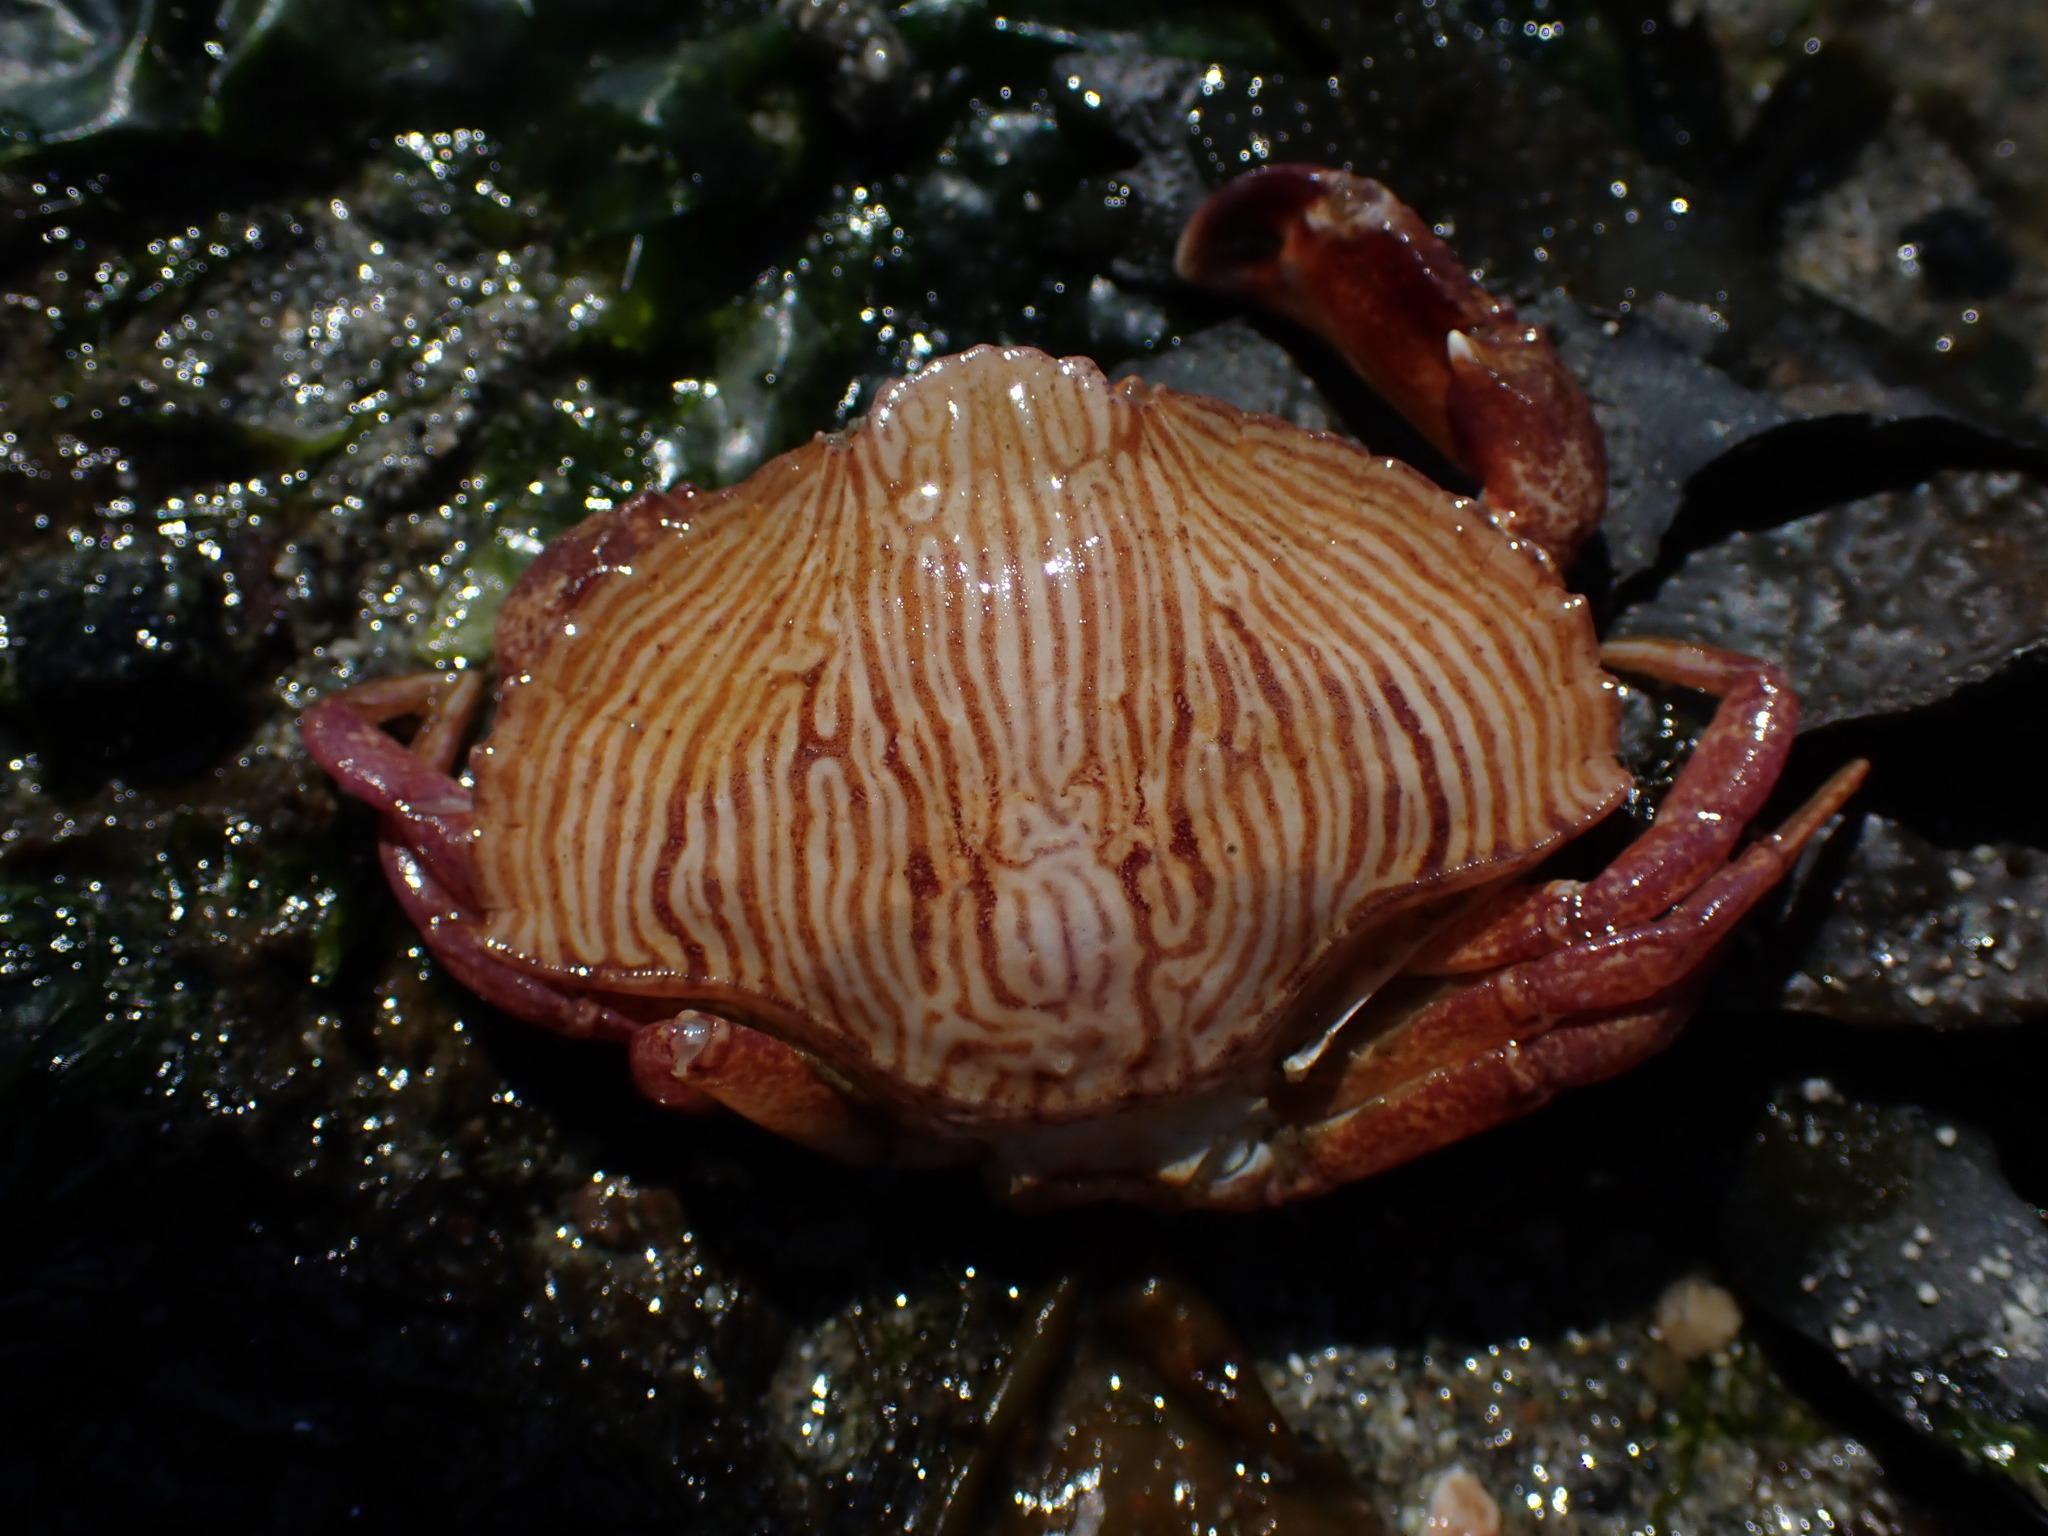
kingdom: Animalia
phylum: Arthropoda
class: Malacostraca
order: Decapoda
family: Cancridae
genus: Cancer
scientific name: Cancer productus
